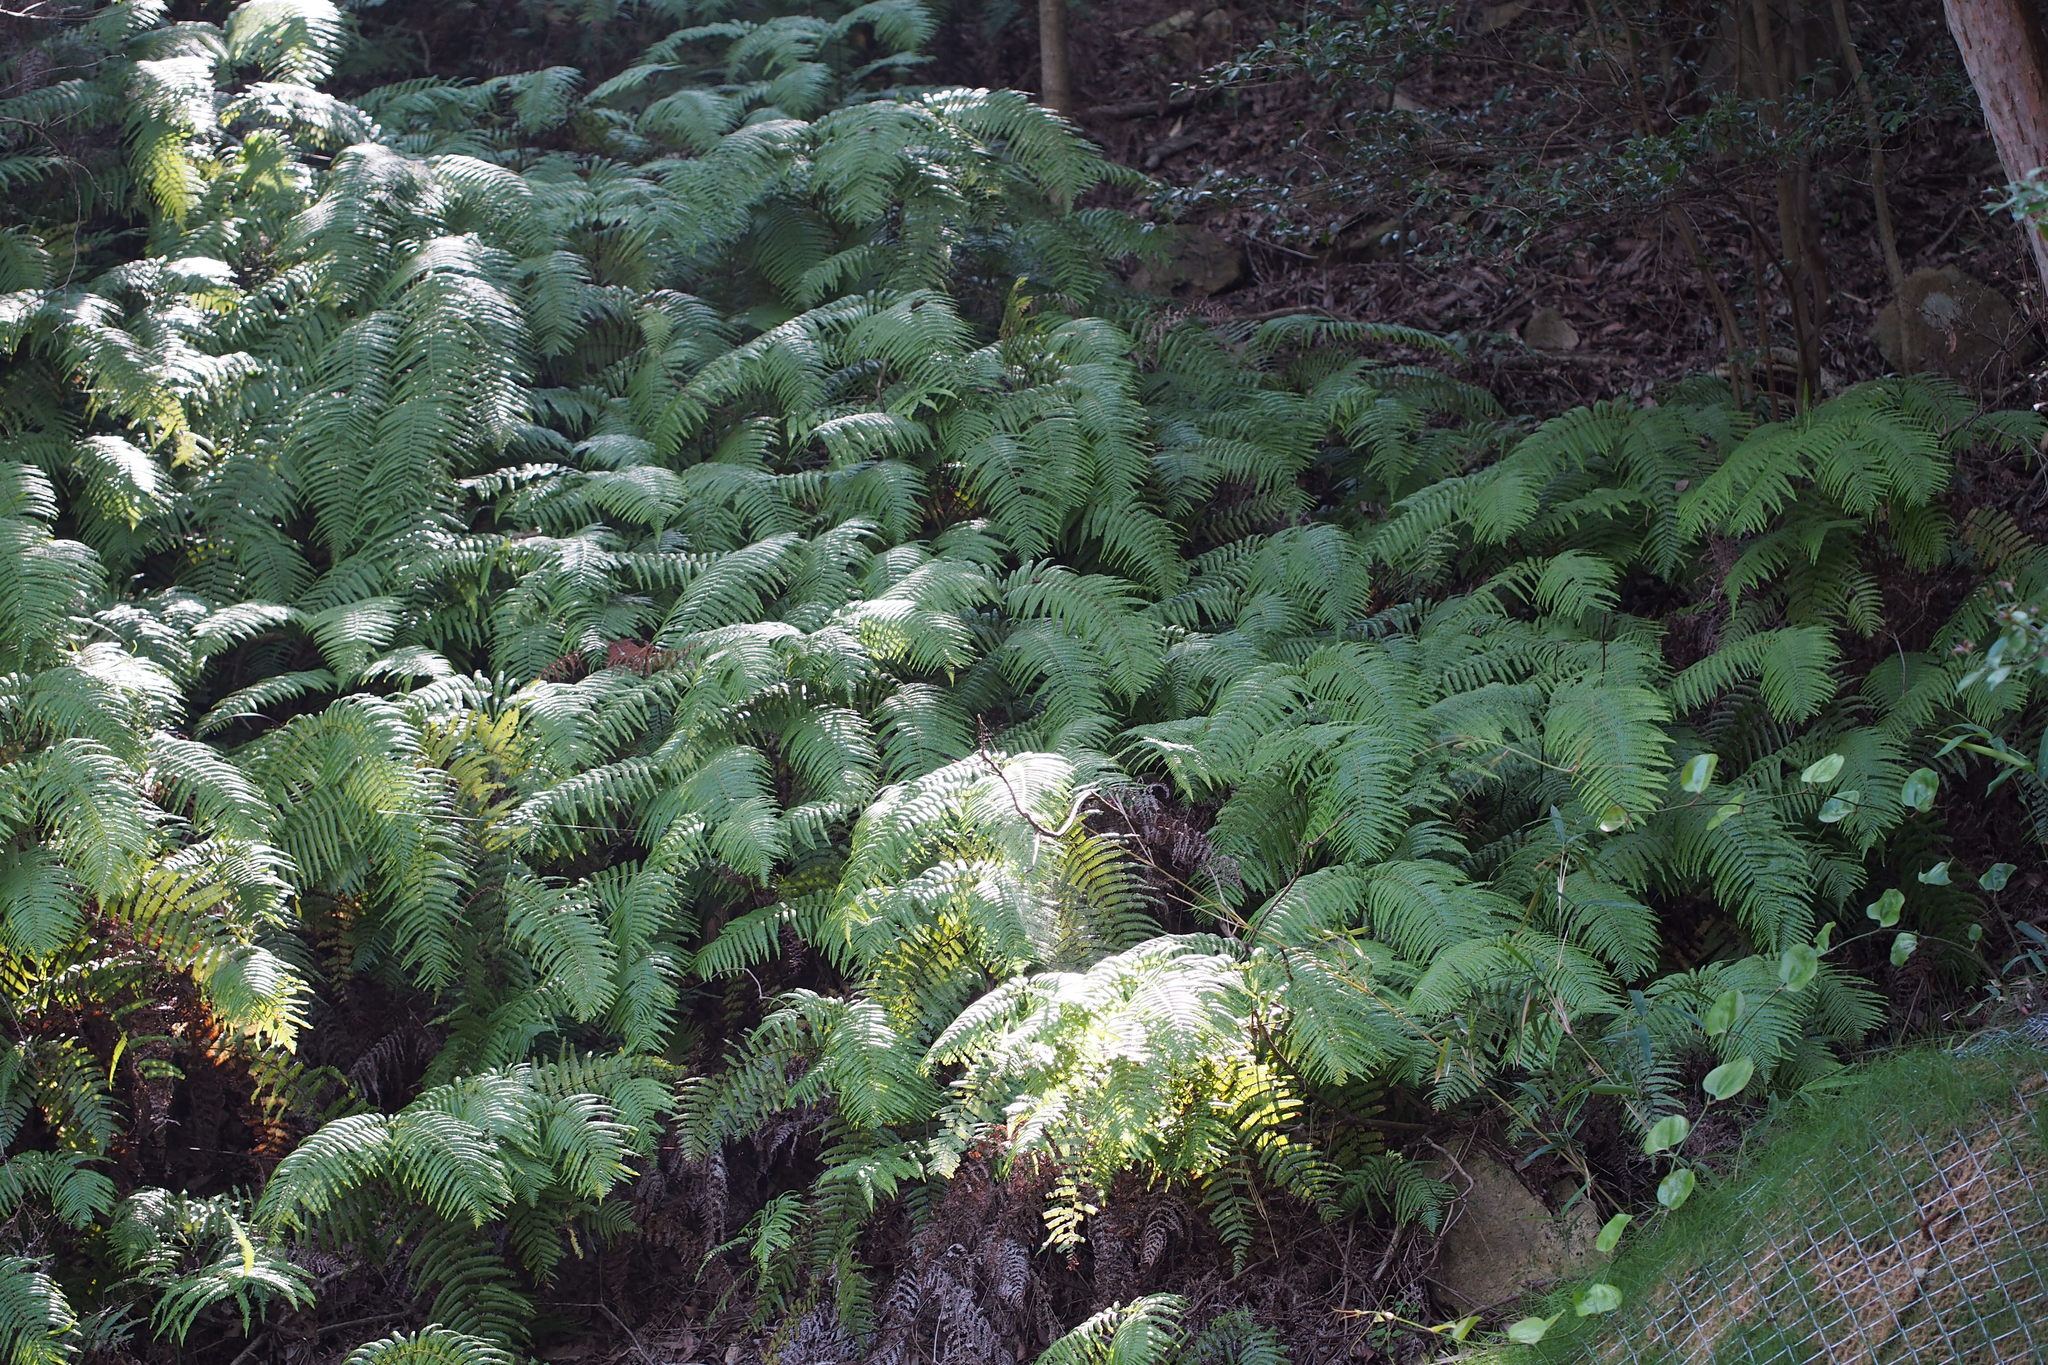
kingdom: Plantae
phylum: Tracheophyta
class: Polypodiopsida
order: Gleicheniales
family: Gleicheniaceae
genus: Diplopterygium
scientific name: Diplopterygium glaucum
